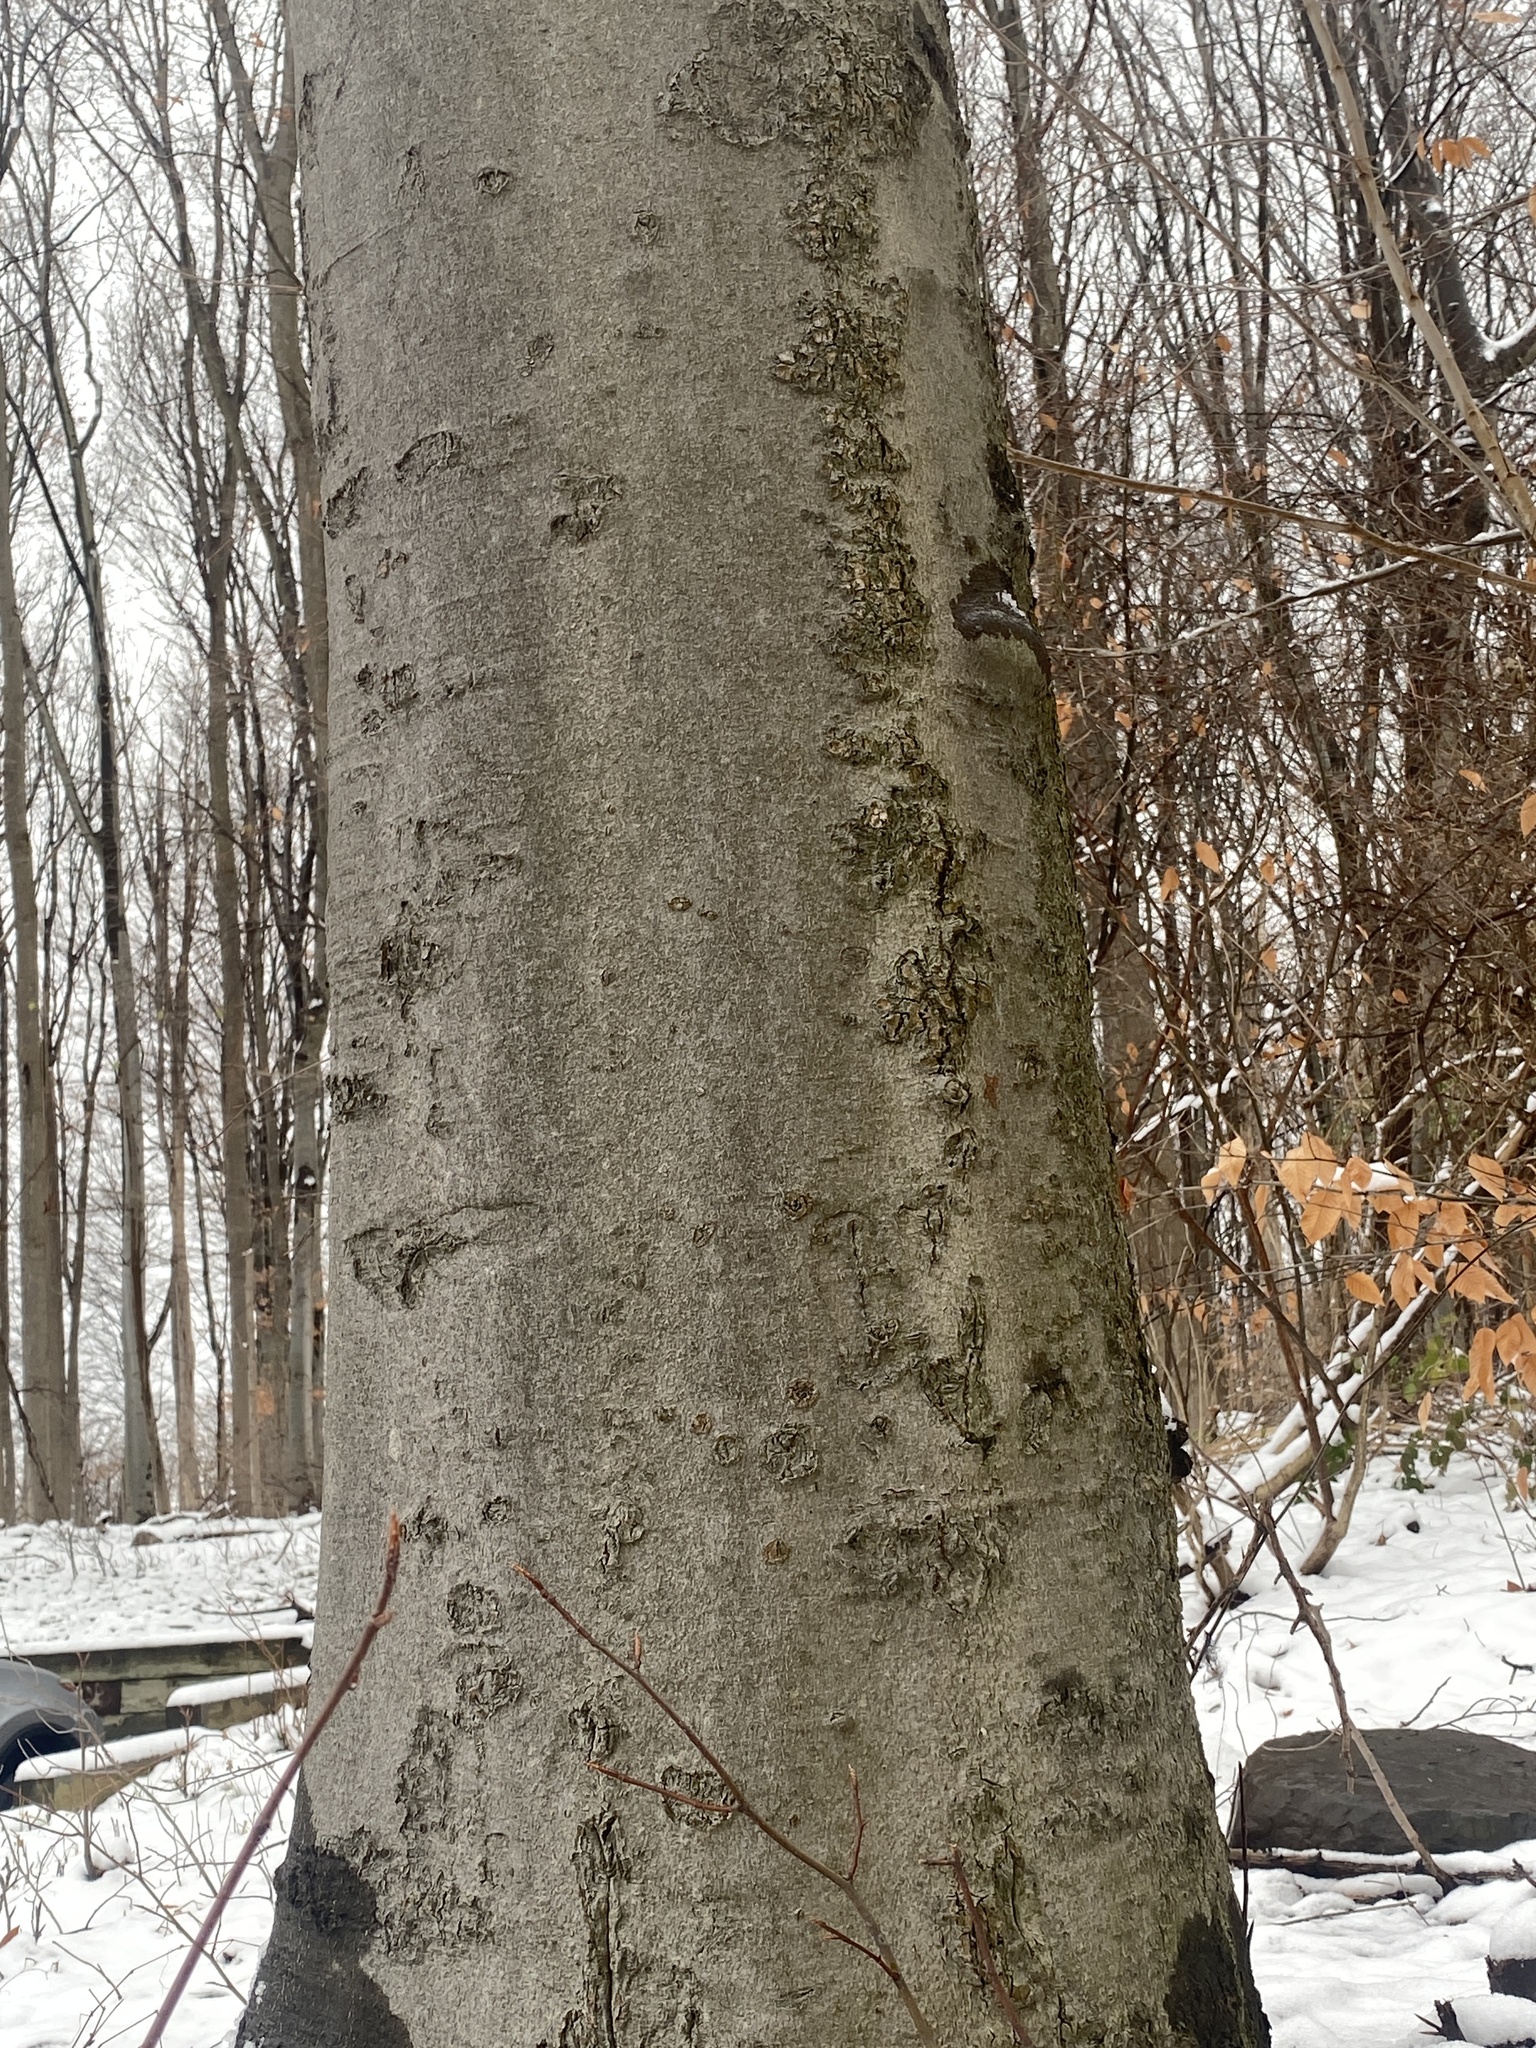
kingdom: Plantae
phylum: Tracheophyta
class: Magnoliopsida
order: Fagales
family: Fagaceae
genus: Fagus
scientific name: Fagus grandifolia
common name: American beech
